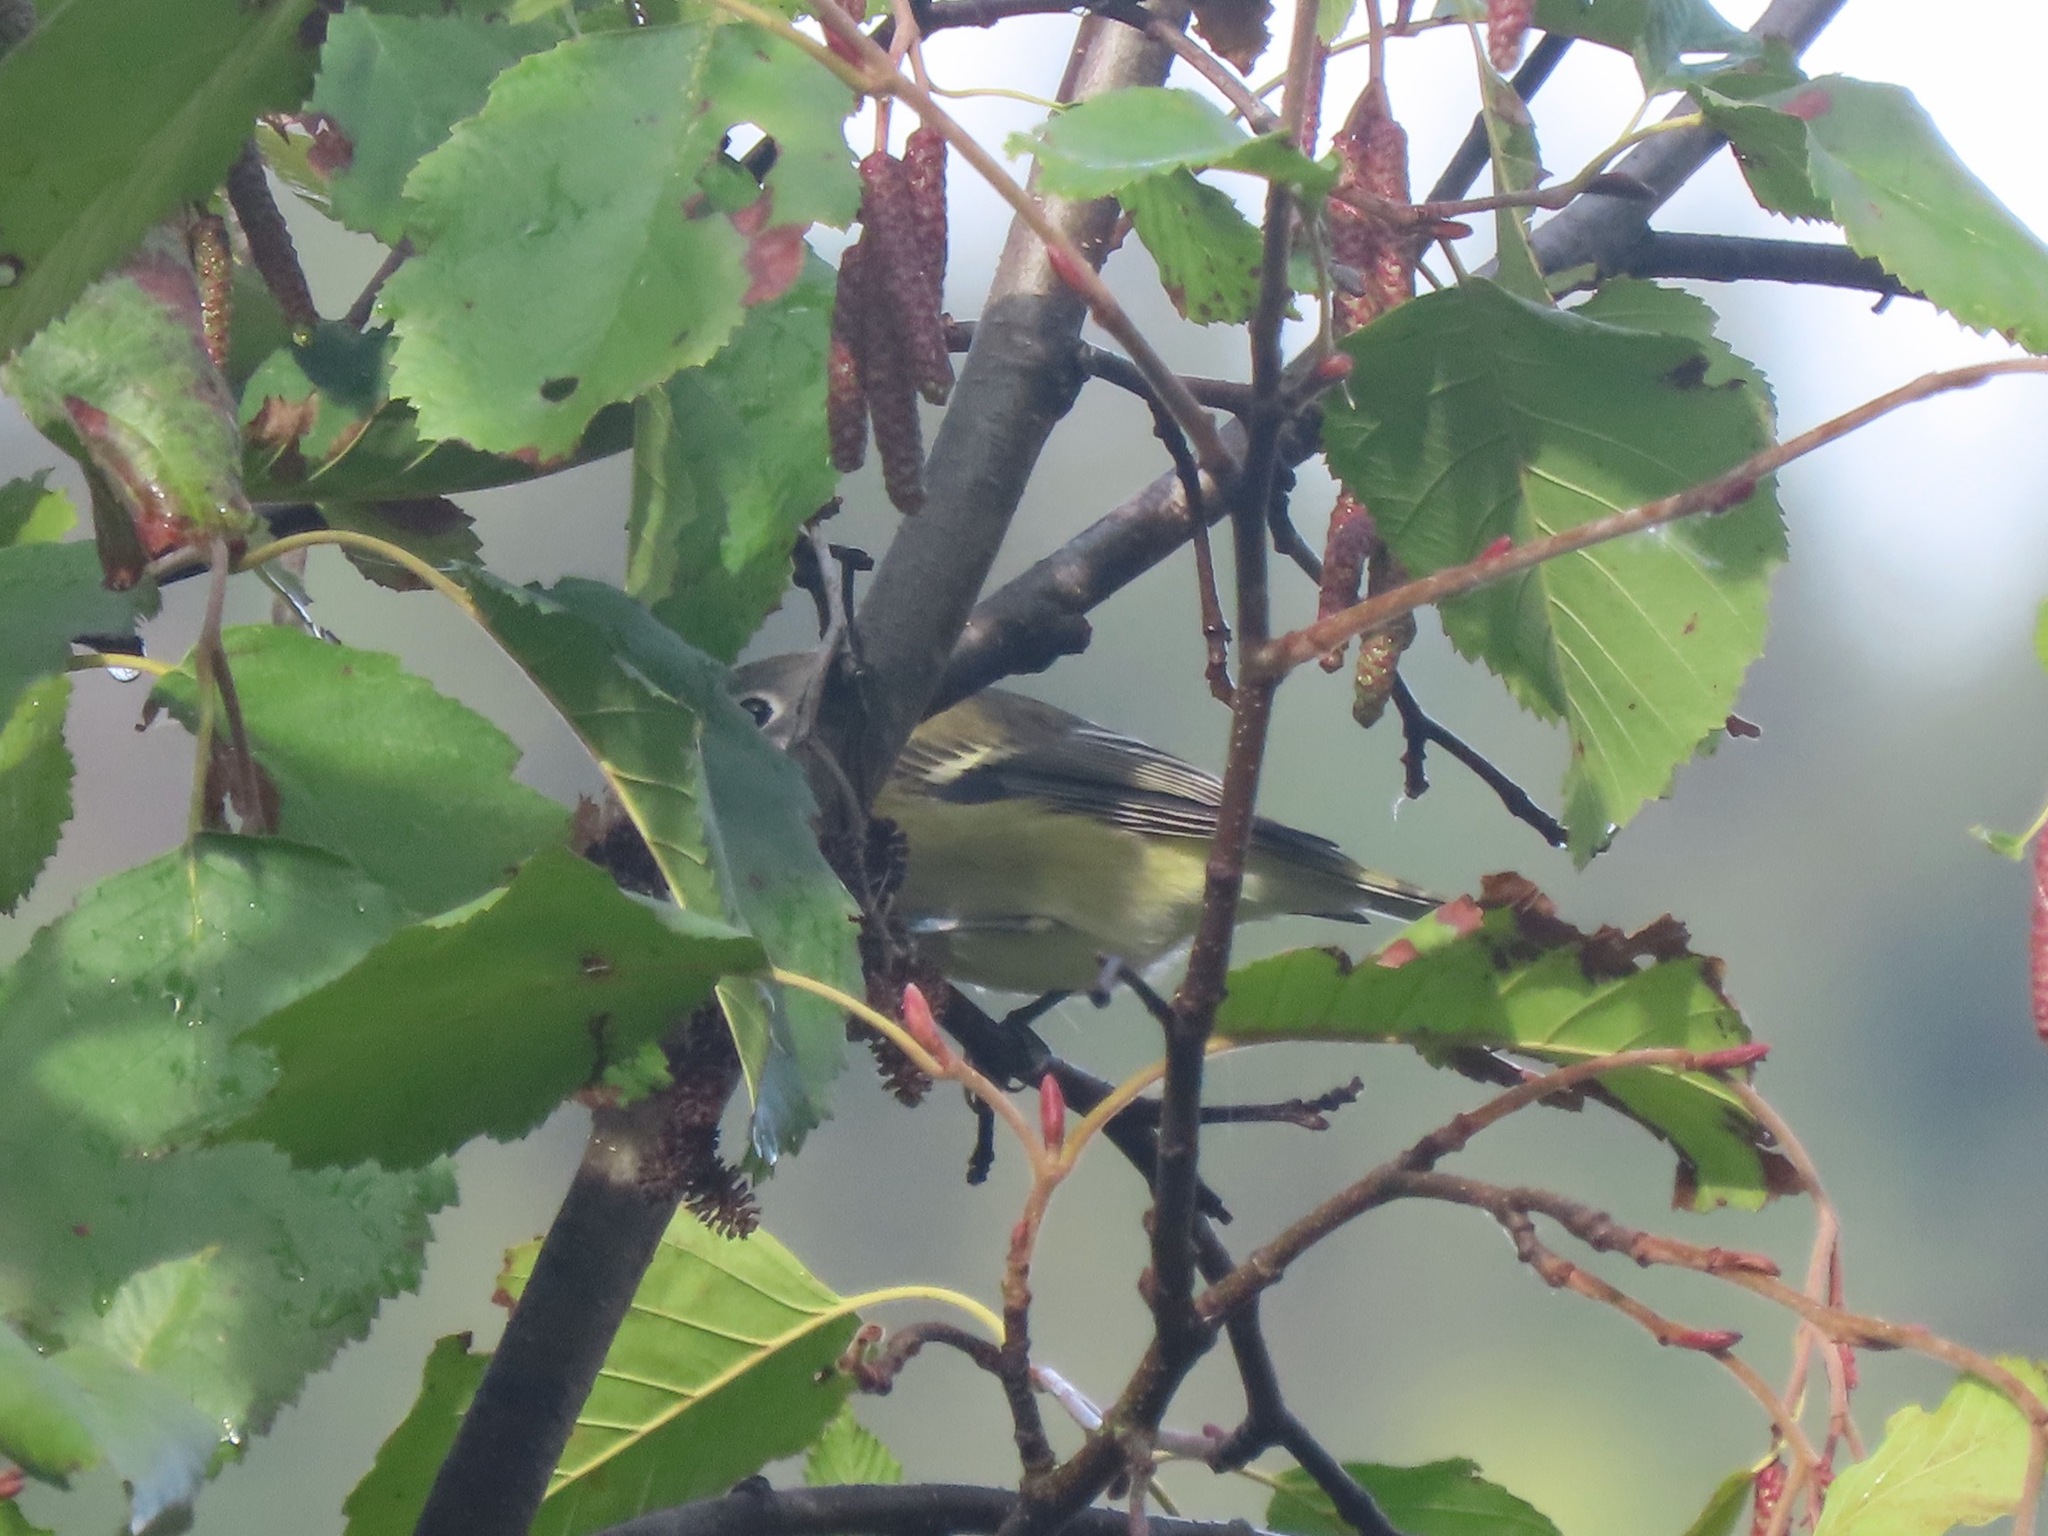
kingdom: Animalia
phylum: Chordata
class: Aves
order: Passeriformes
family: Vireonidae
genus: Vireo
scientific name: Vireo cassinii
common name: Cassin's vireo
